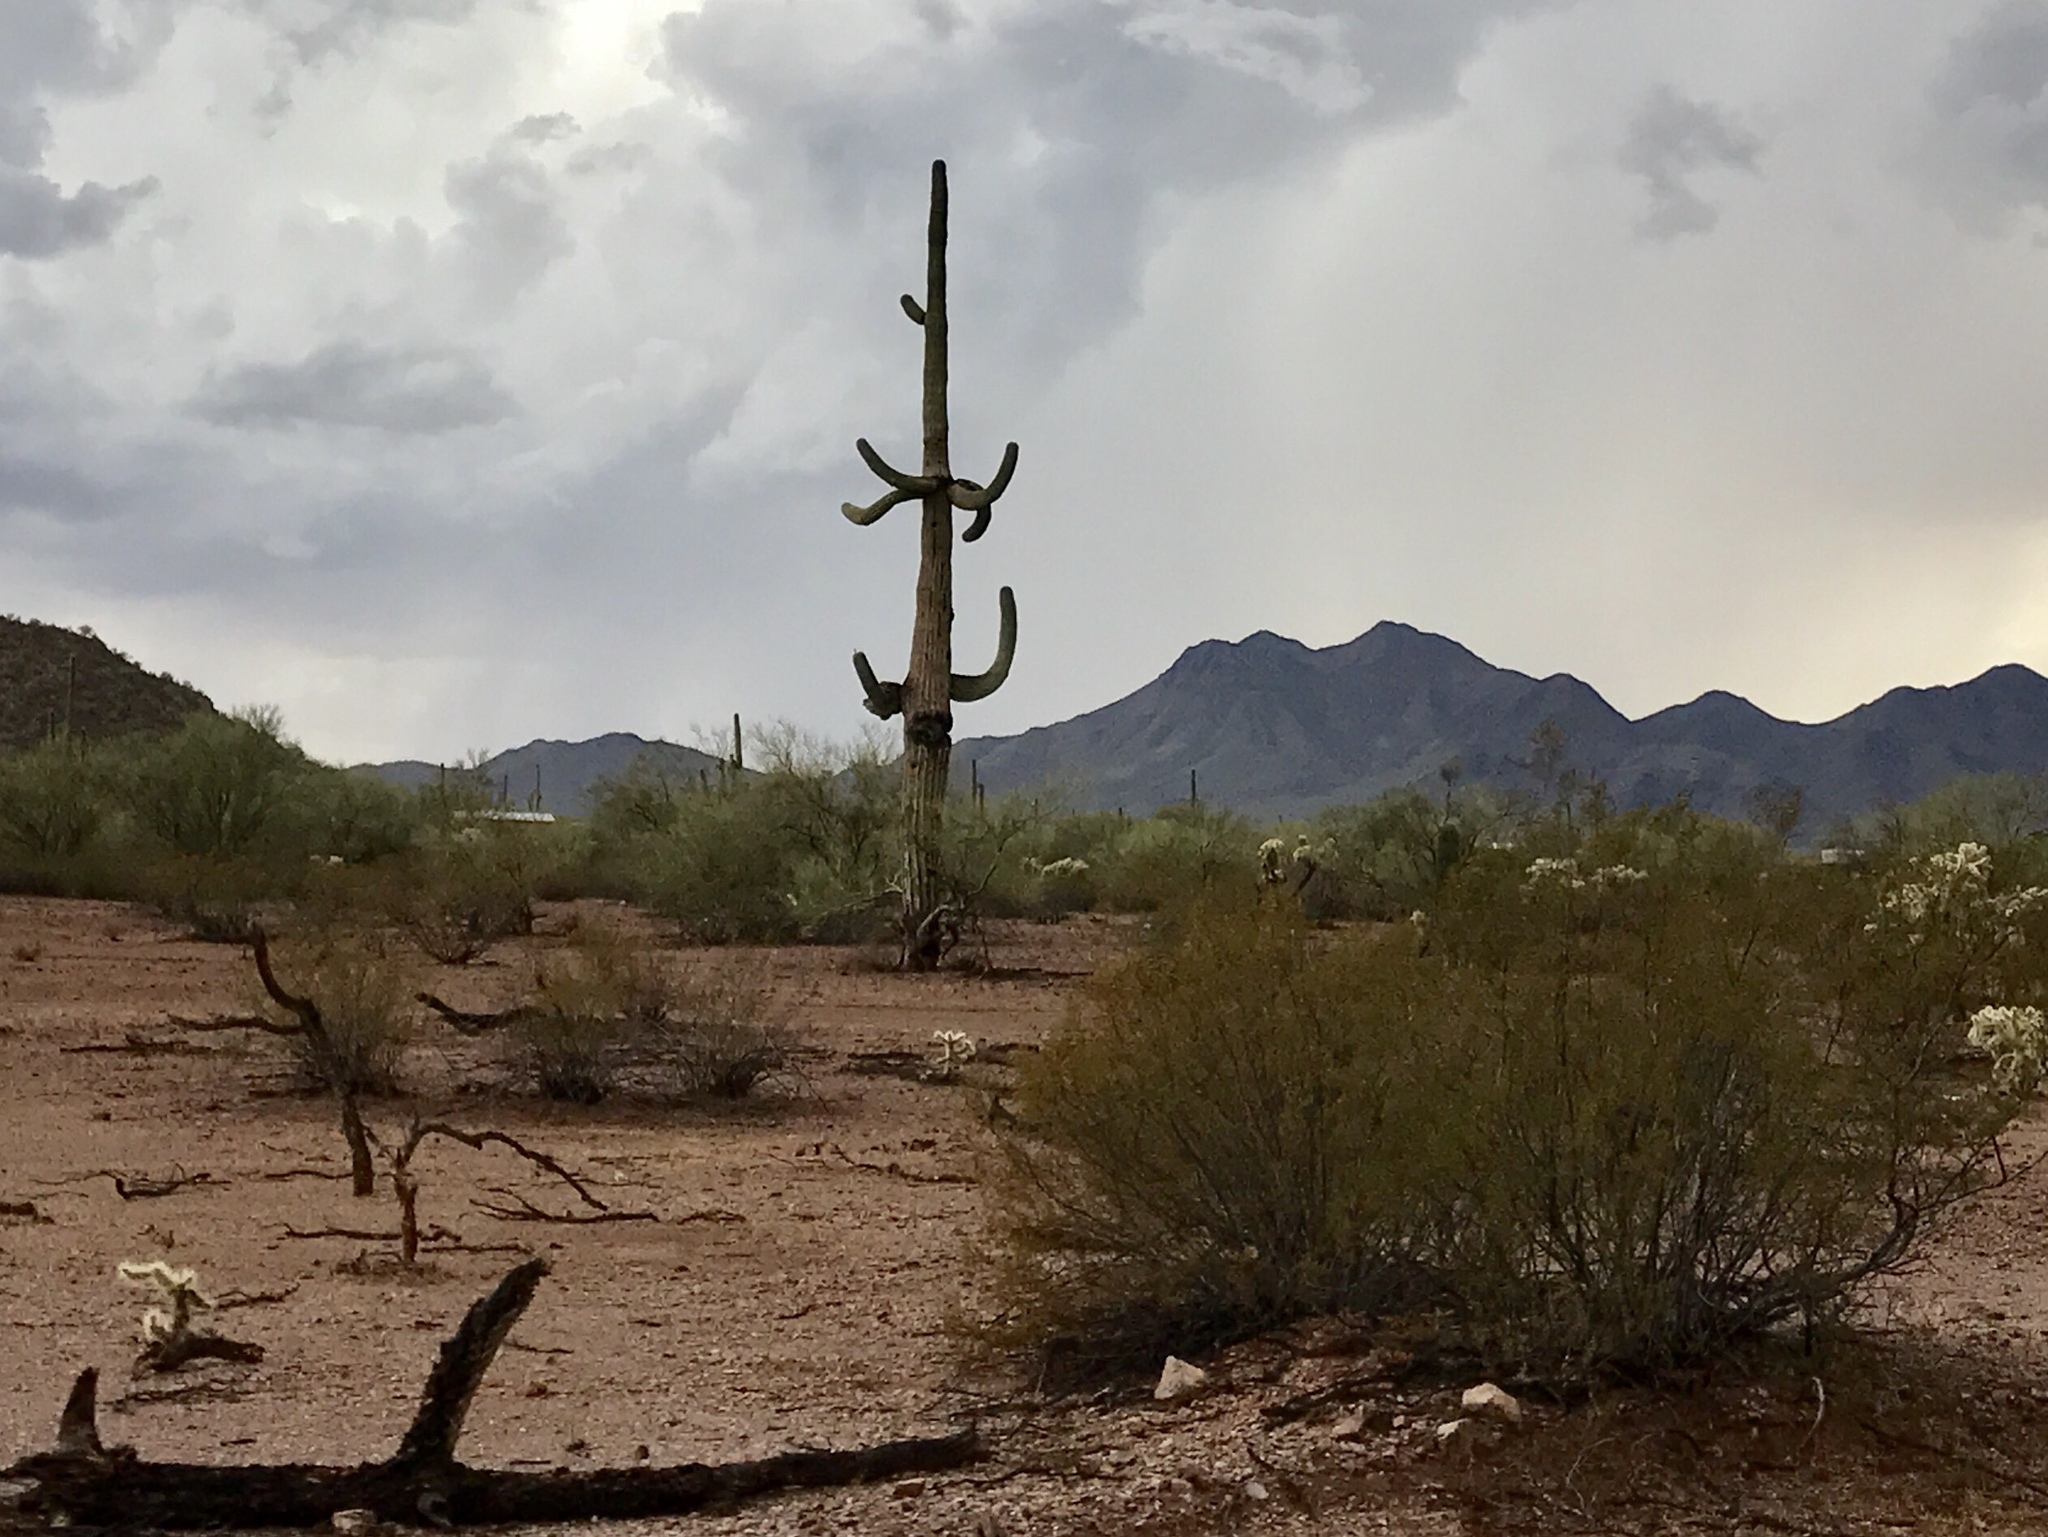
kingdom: Plantae
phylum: Tracheophyta
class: Magnoliopsida
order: Caryophyllales
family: Cactaceae
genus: Carnegiea
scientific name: Carnegiea gigantea
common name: Saguaro
